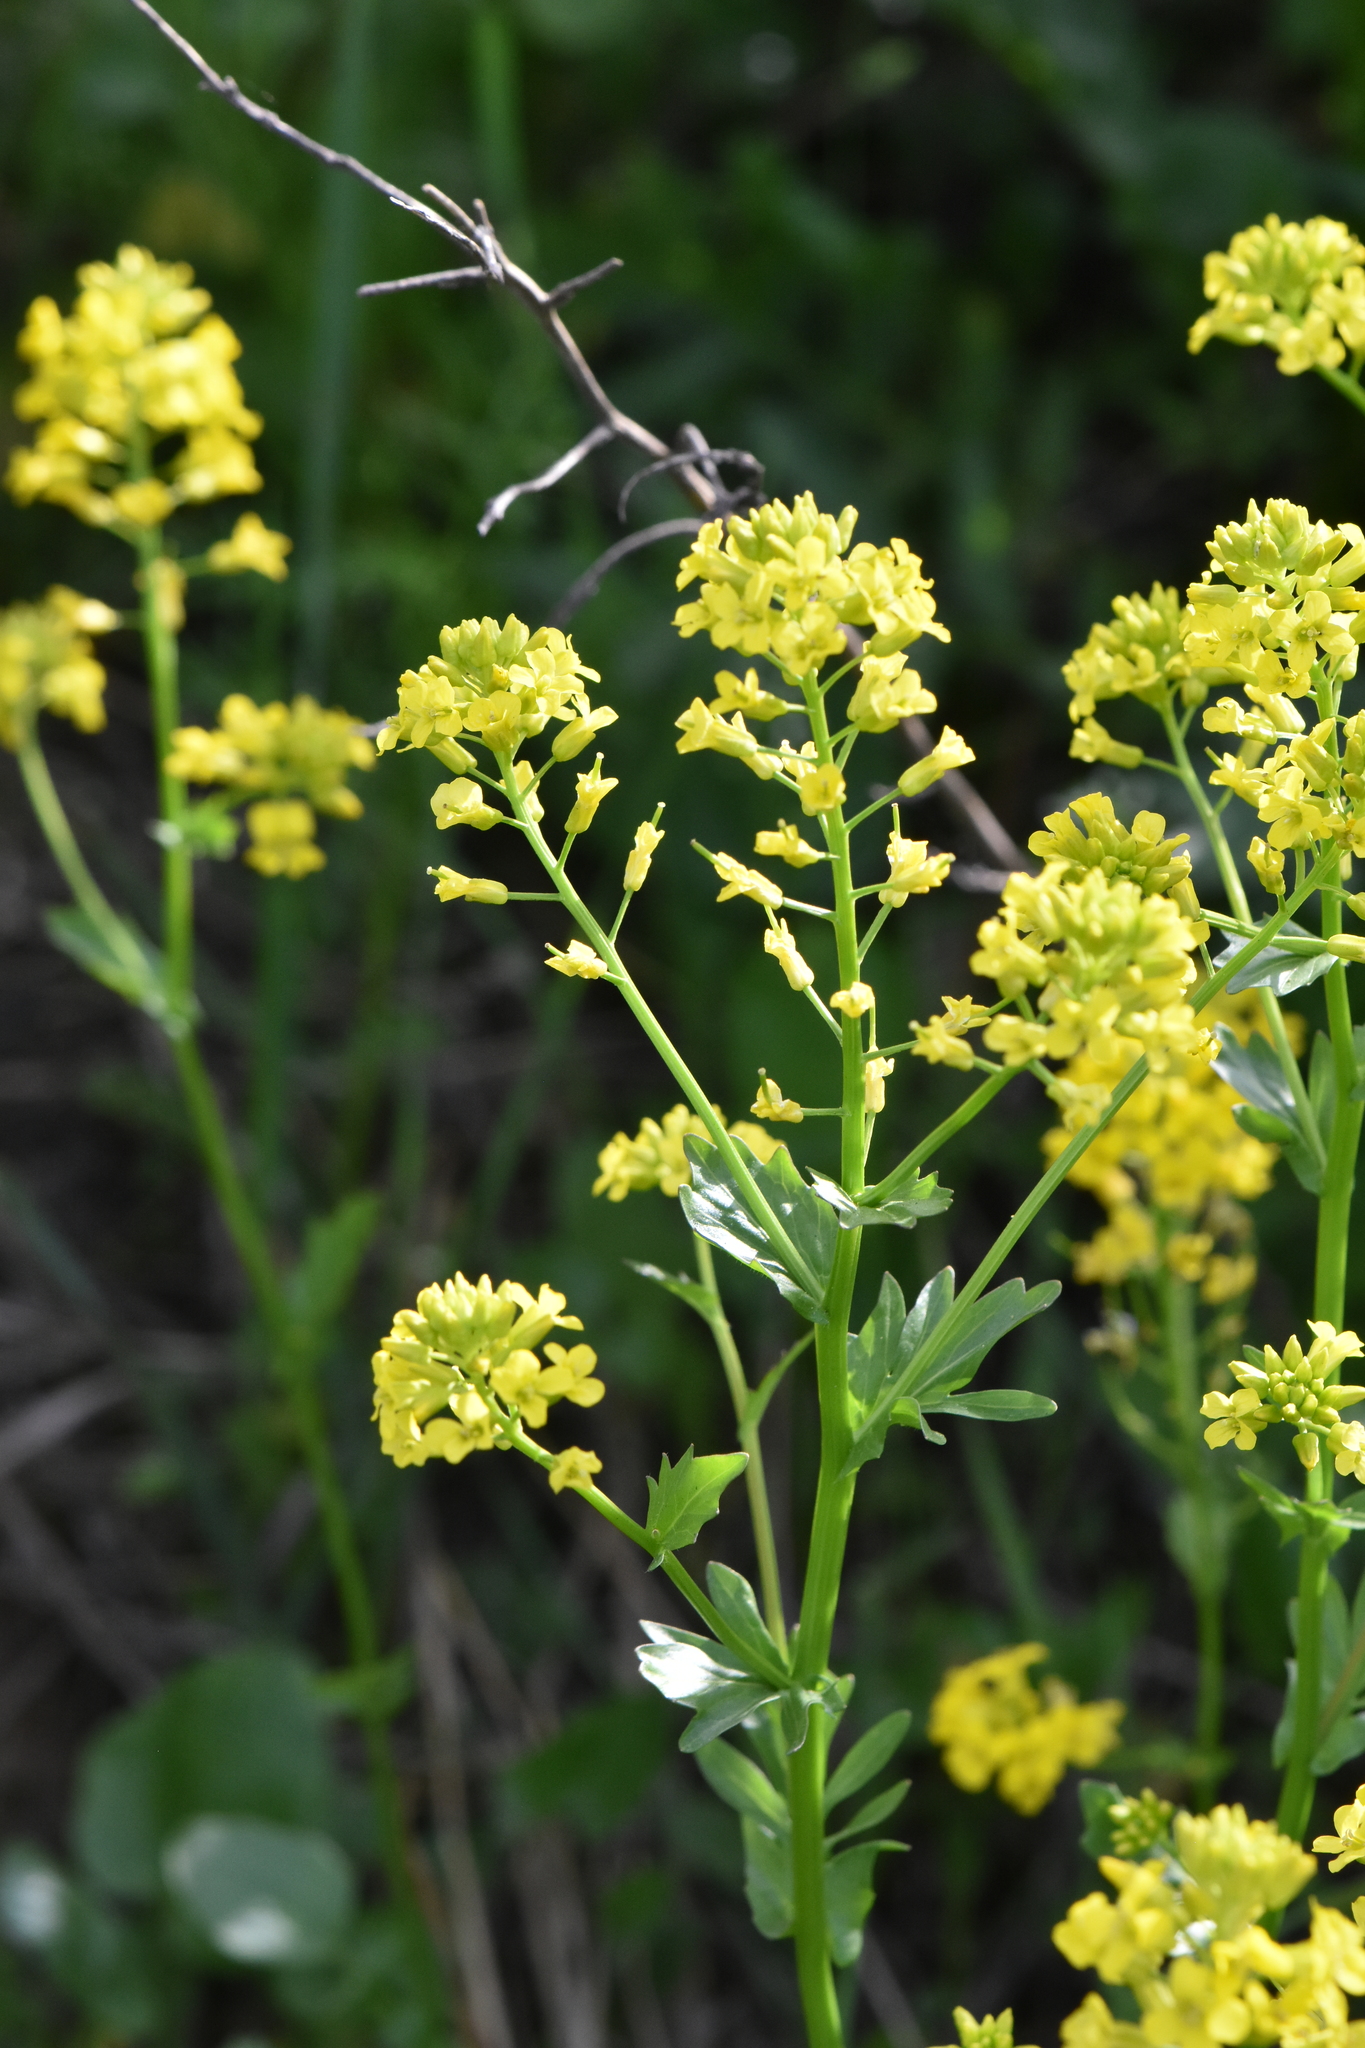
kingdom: Plantae
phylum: Tracheophyta
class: Magnoliopsida
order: Brassicales
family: Brassicaceae
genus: Barbarea
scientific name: Barbarea vulgaris
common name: Cressy-greens
